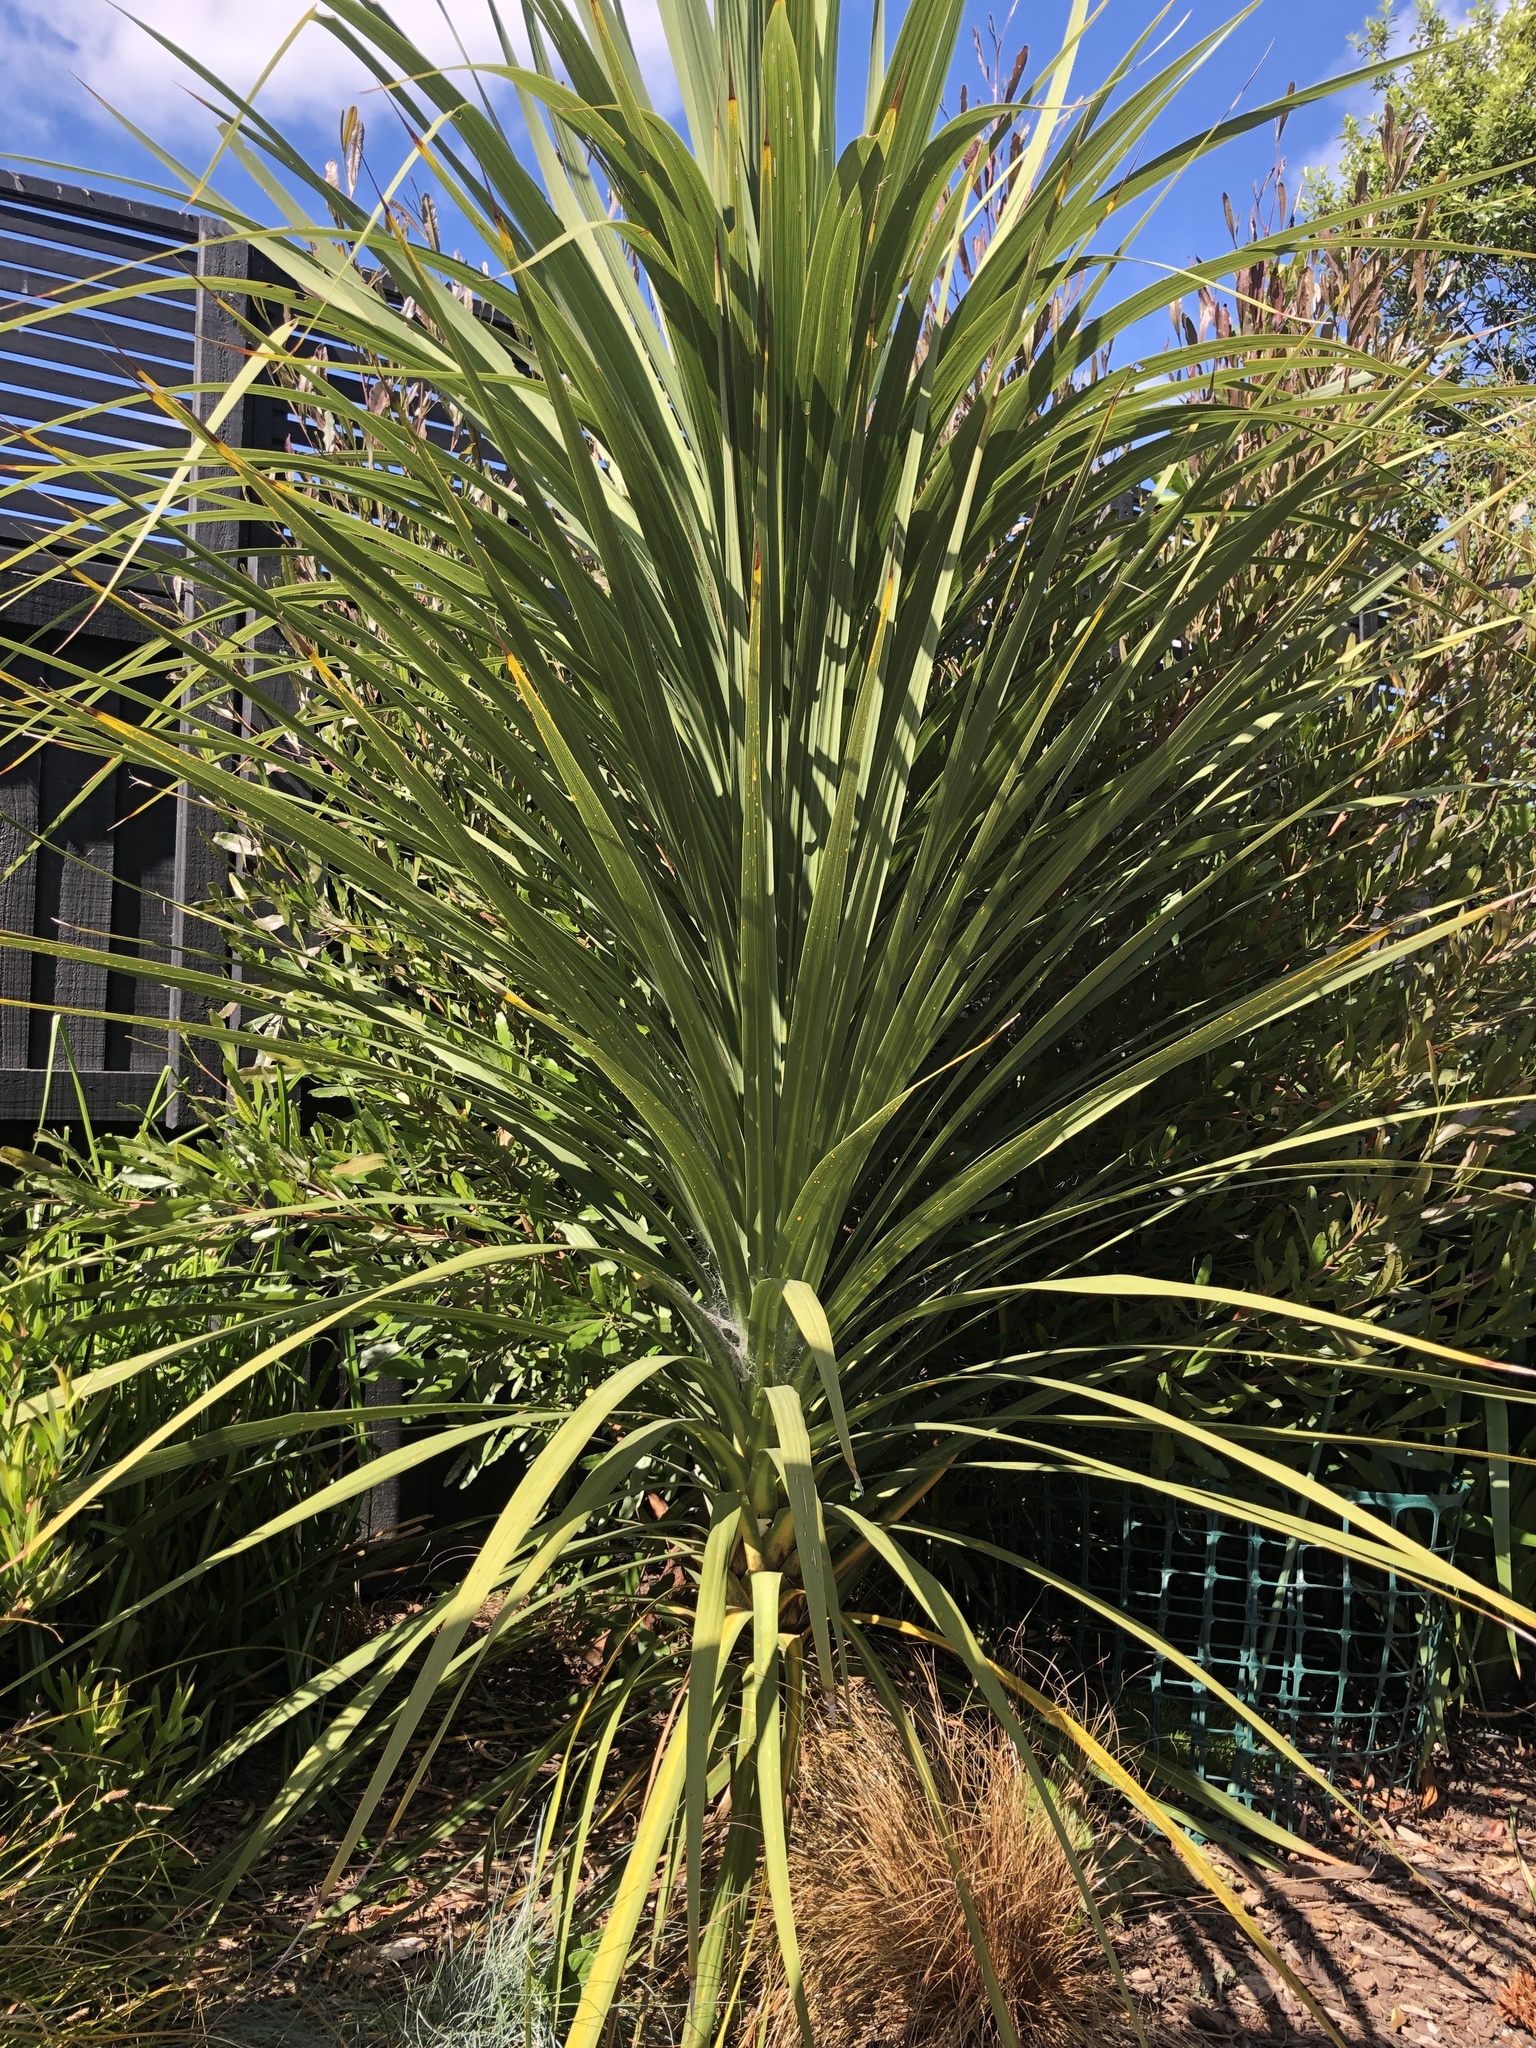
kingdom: Plantae
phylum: Tracheophyta
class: Liliopsida
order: Asparagales
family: Asparagaceae
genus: Cordyline
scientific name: Cordyline australis
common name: Cabbage-palm
